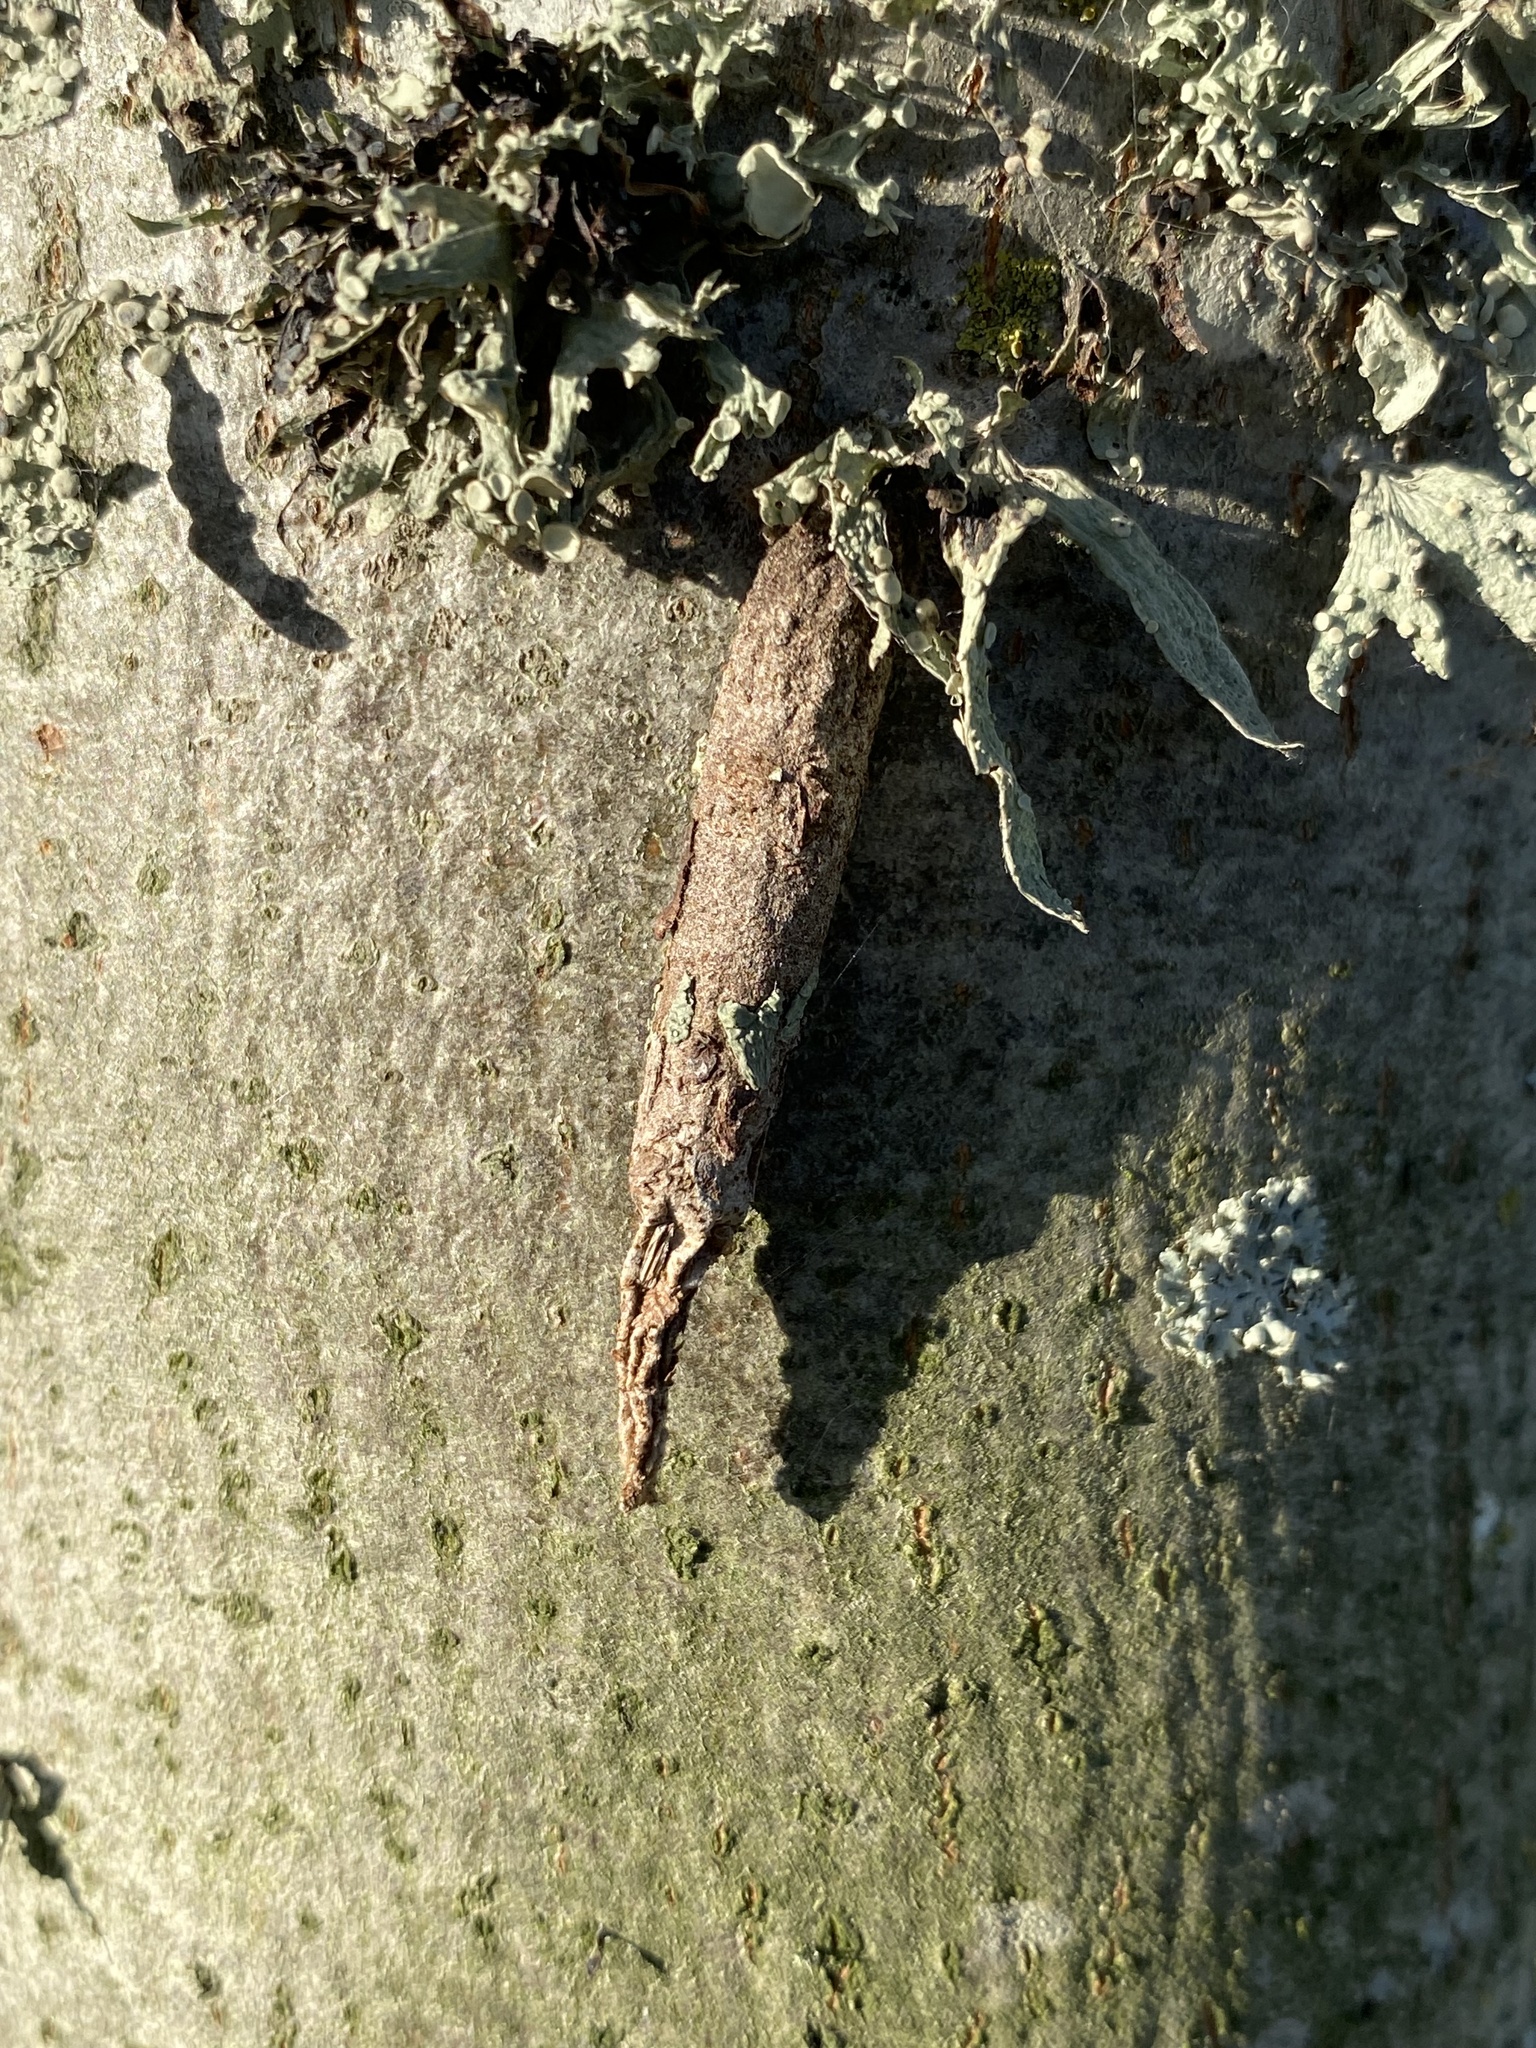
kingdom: Animalia
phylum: Arthropoda
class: Insecta
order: Lepidoptera
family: Psychidae
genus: Liothula
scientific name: Liothula omnivora
